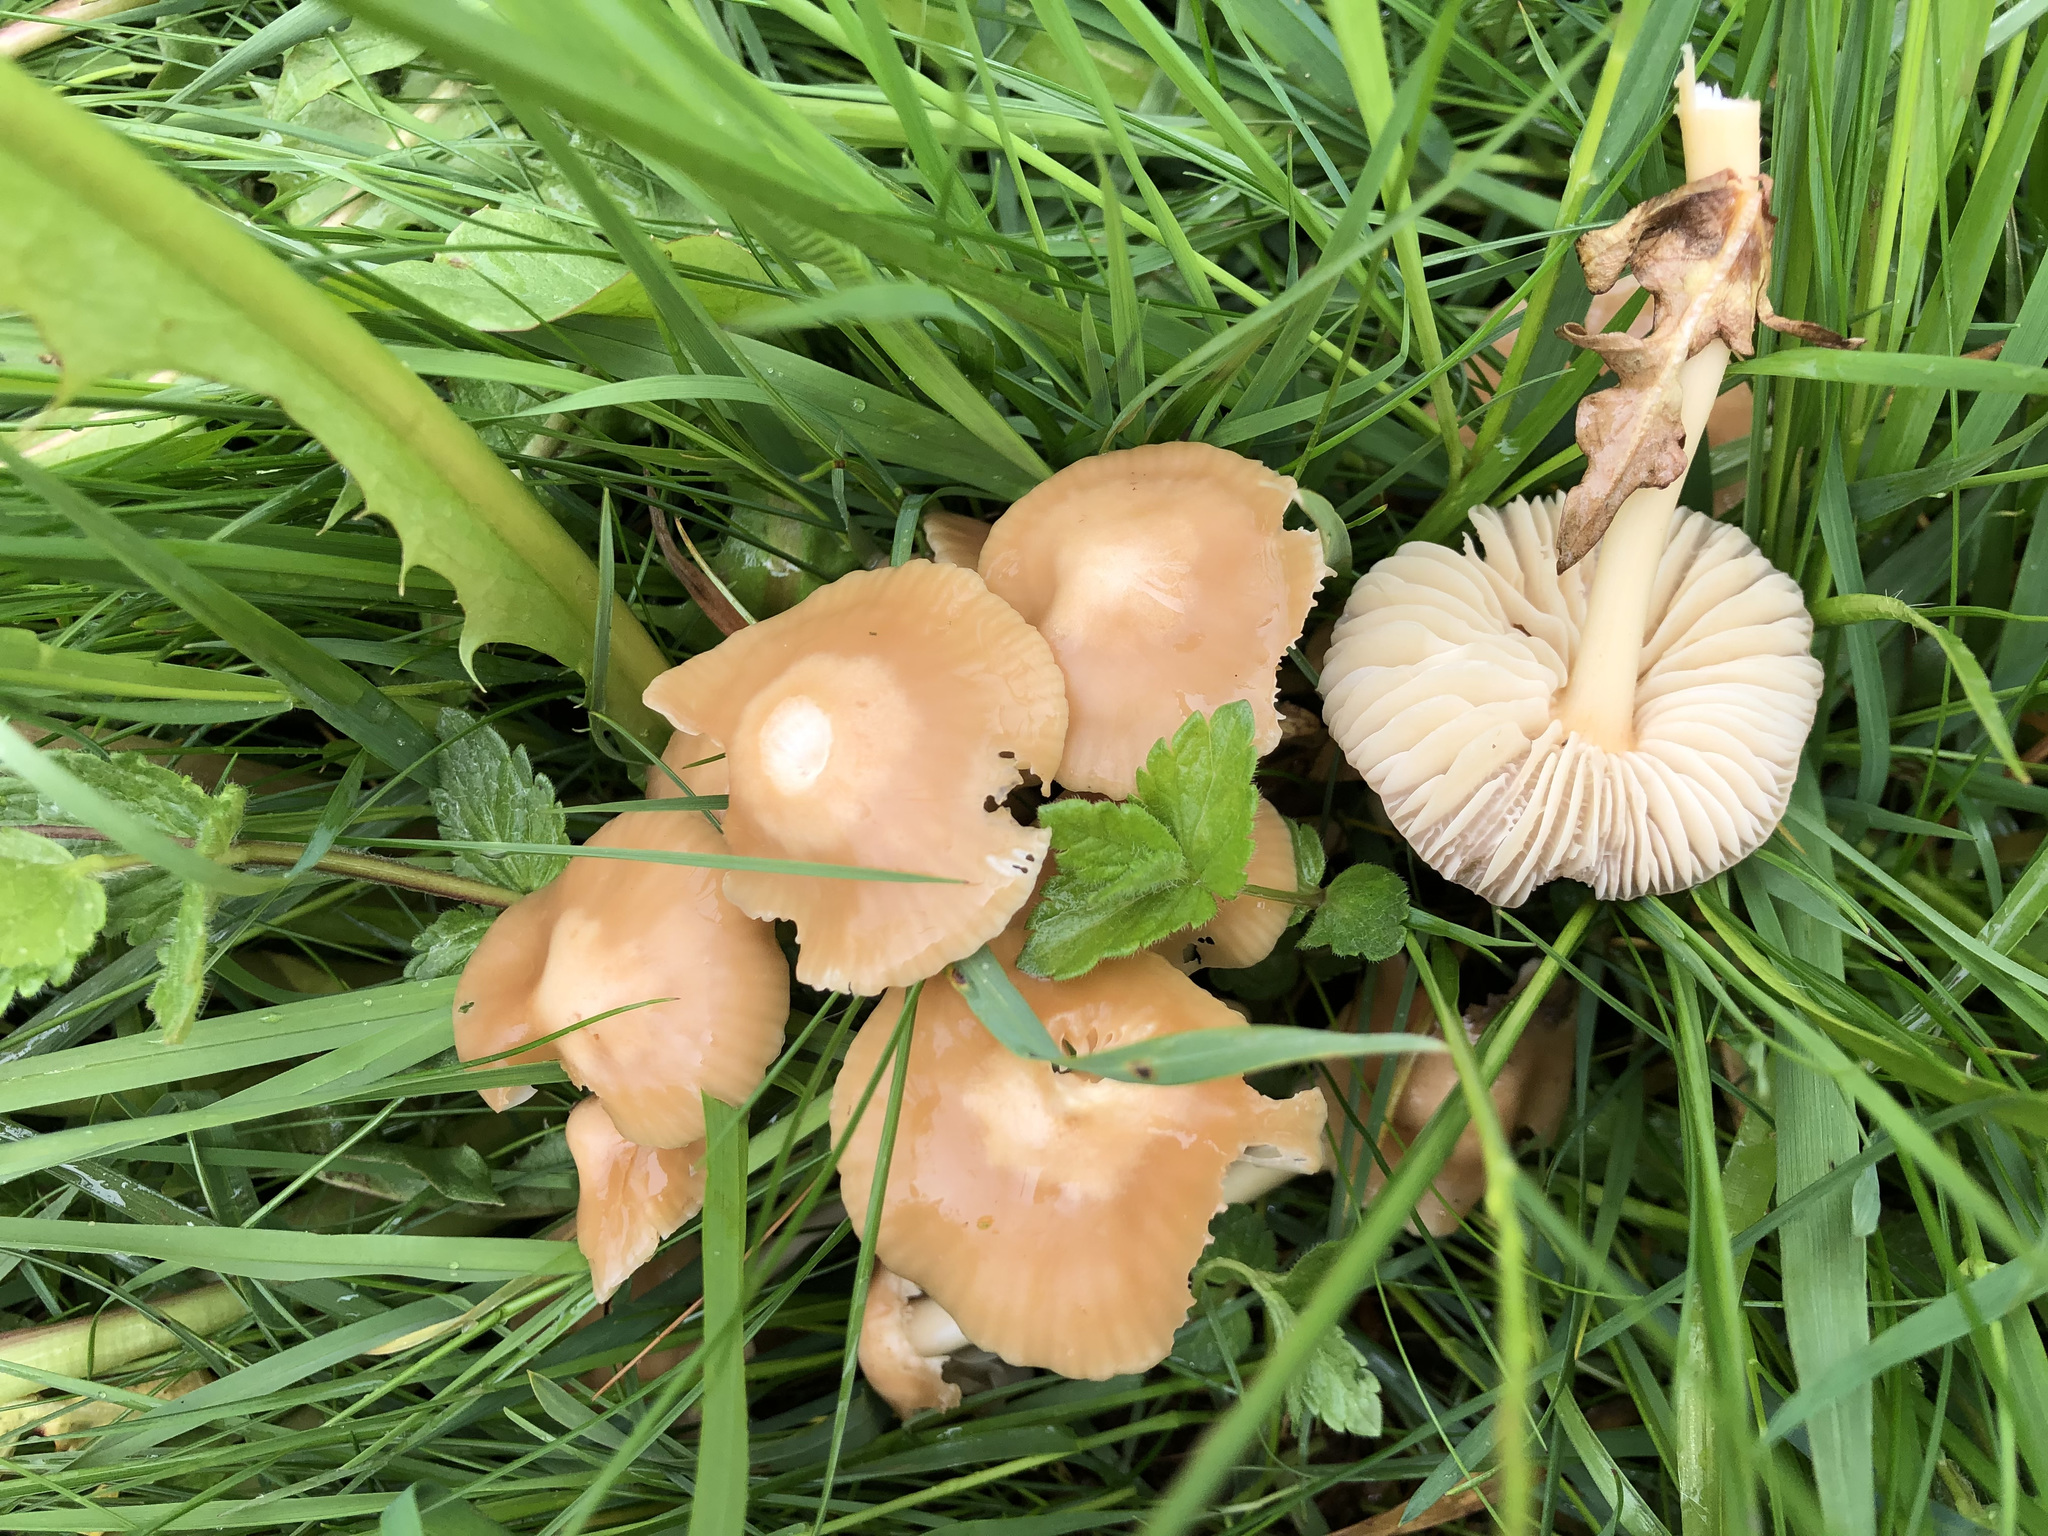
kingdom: Fungi
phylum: Basidiomycota
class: Agaricomycetes
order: Agaricales
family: Marasmiaceae
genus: Marasmius
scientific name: Marasmius oreades
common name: Fairy ring champignon
